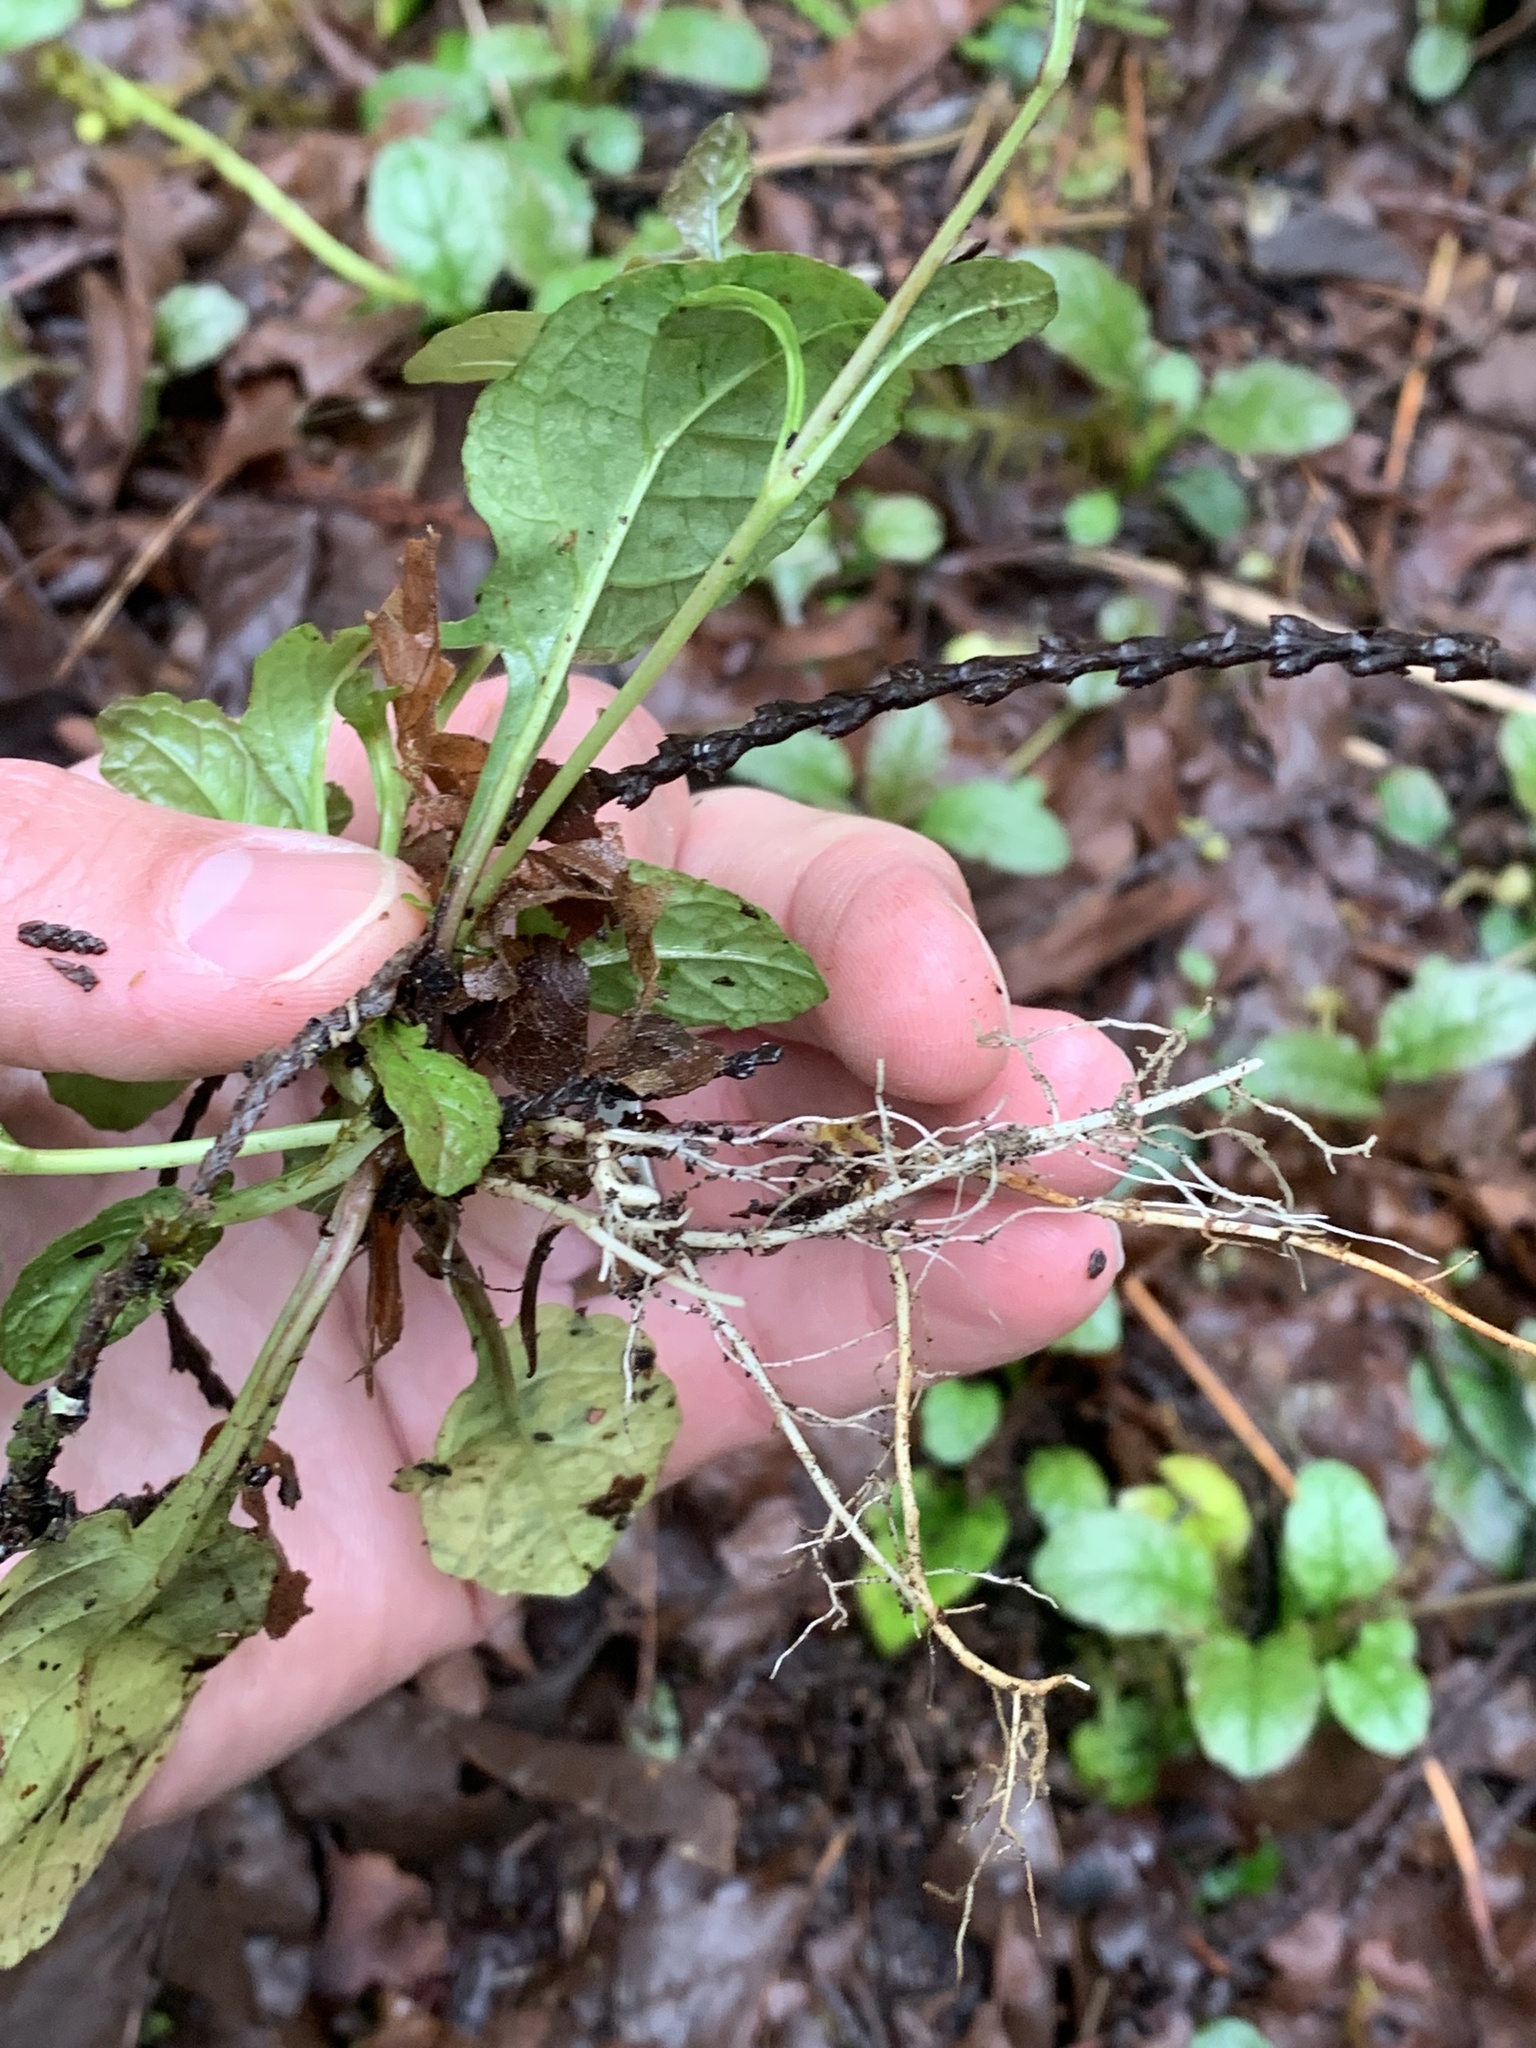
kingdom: Plantae
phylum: Tracheophyta
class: Magnoliopsida
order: Lamiales
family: Lamiaceae
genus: Ajuga
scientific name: Ajuga reptans
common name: Bugle
